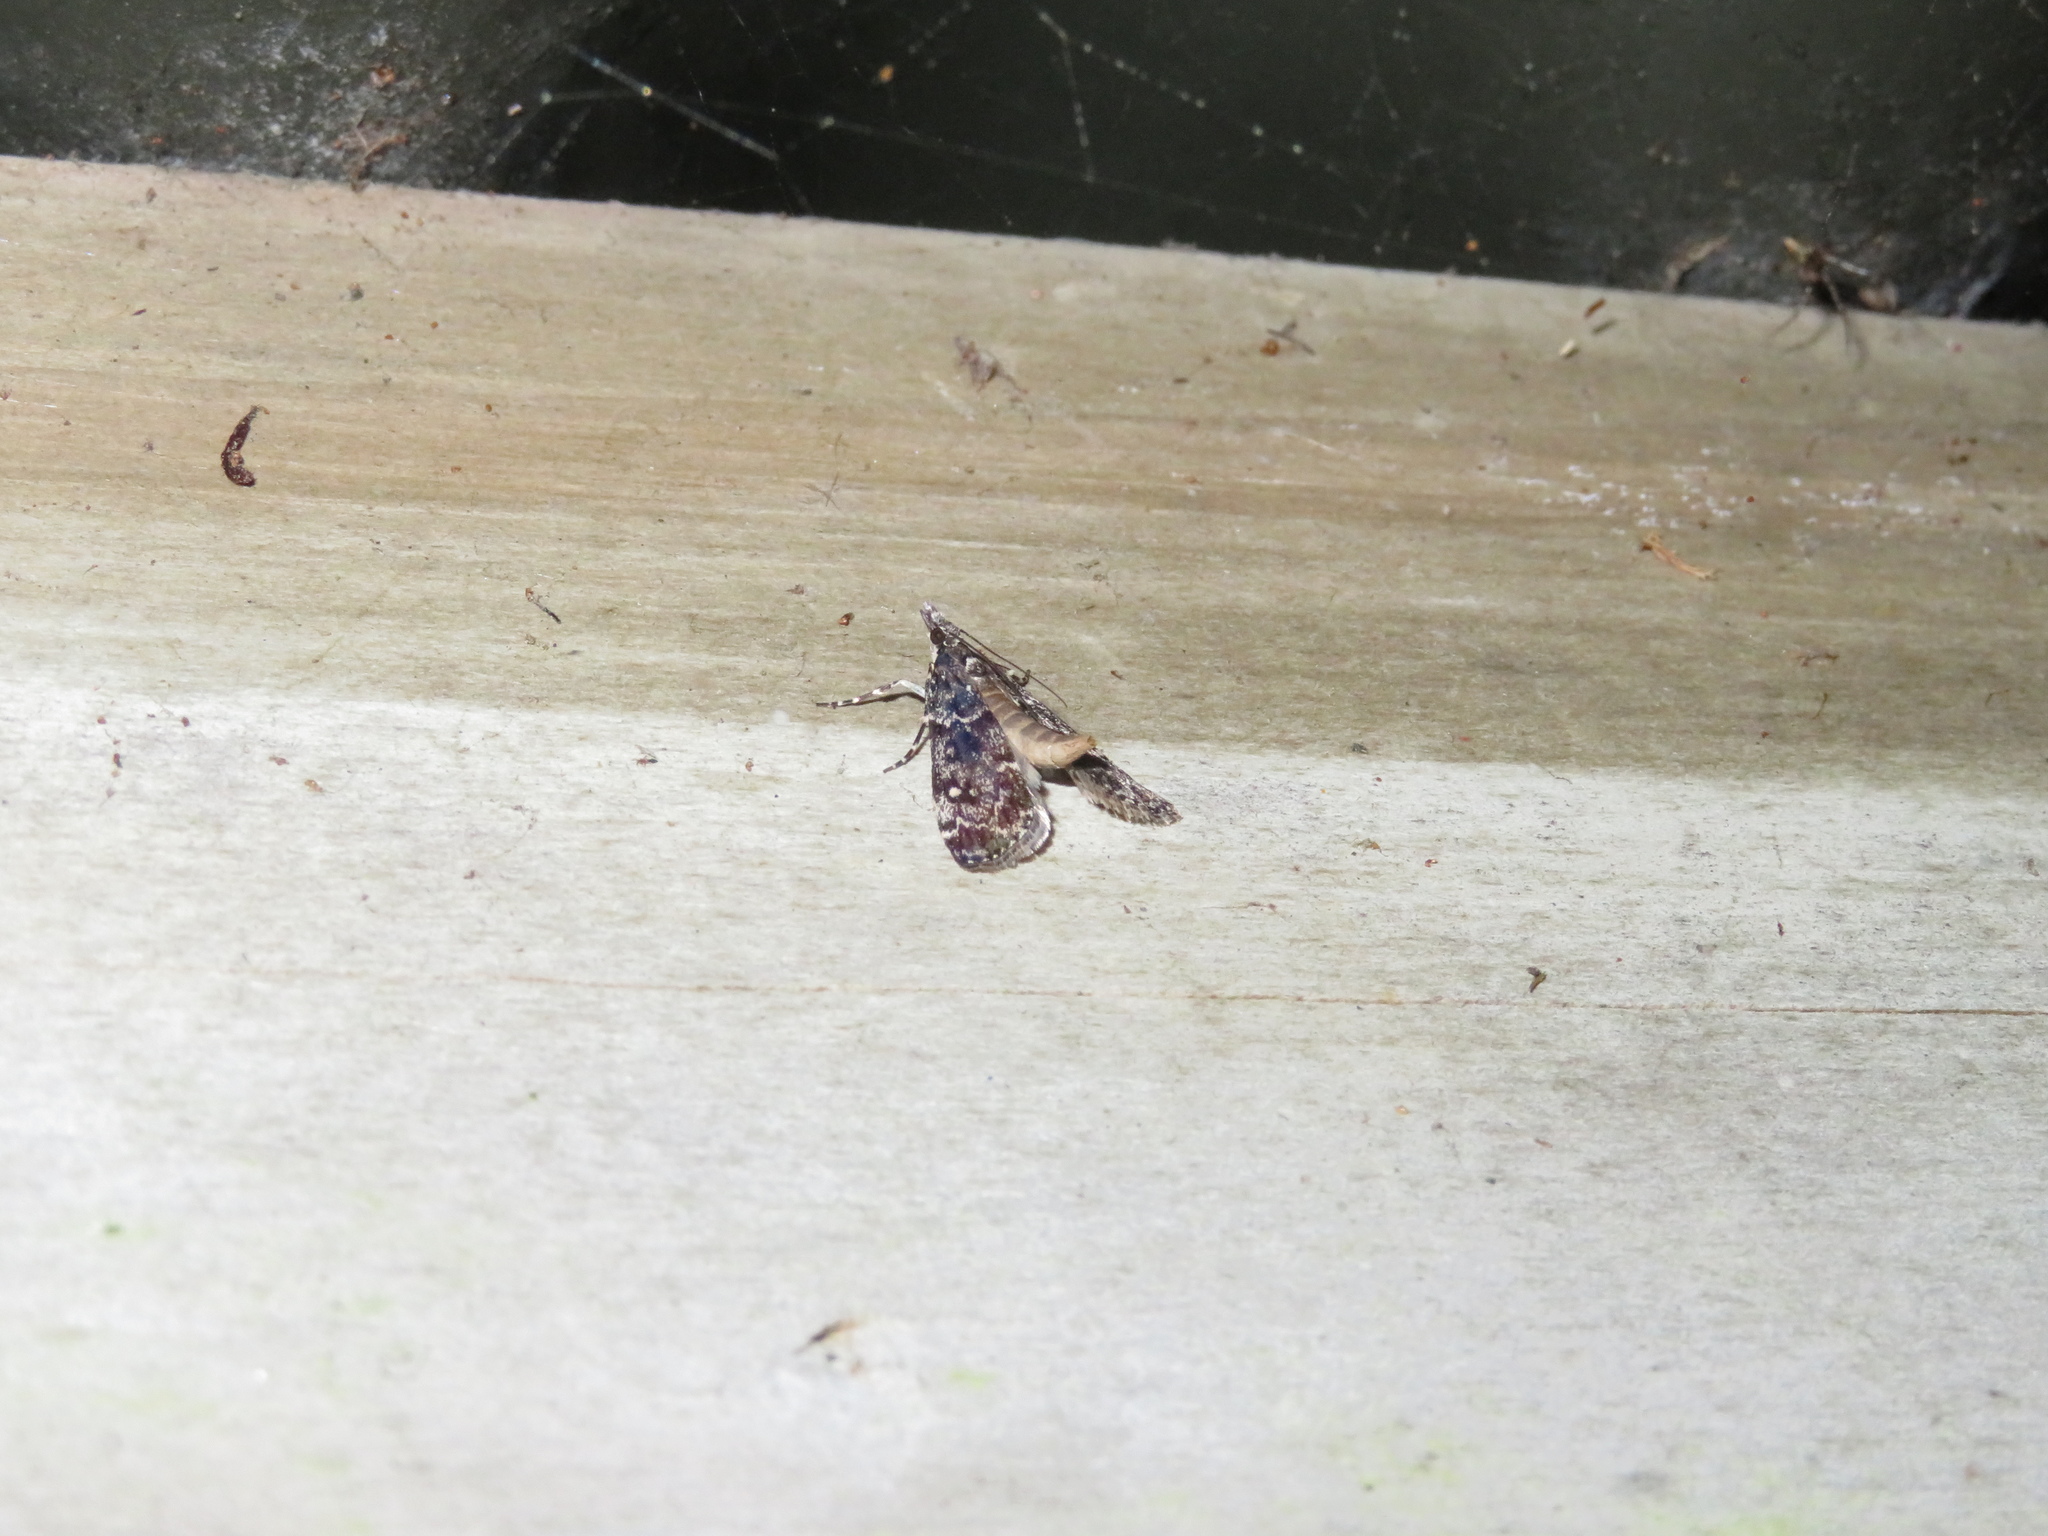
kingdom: Animalia
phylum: Arthropoda
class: Insecta
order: Lepidoptera
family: Crambidae
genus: Eudonia
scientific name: Eudonia philerga
